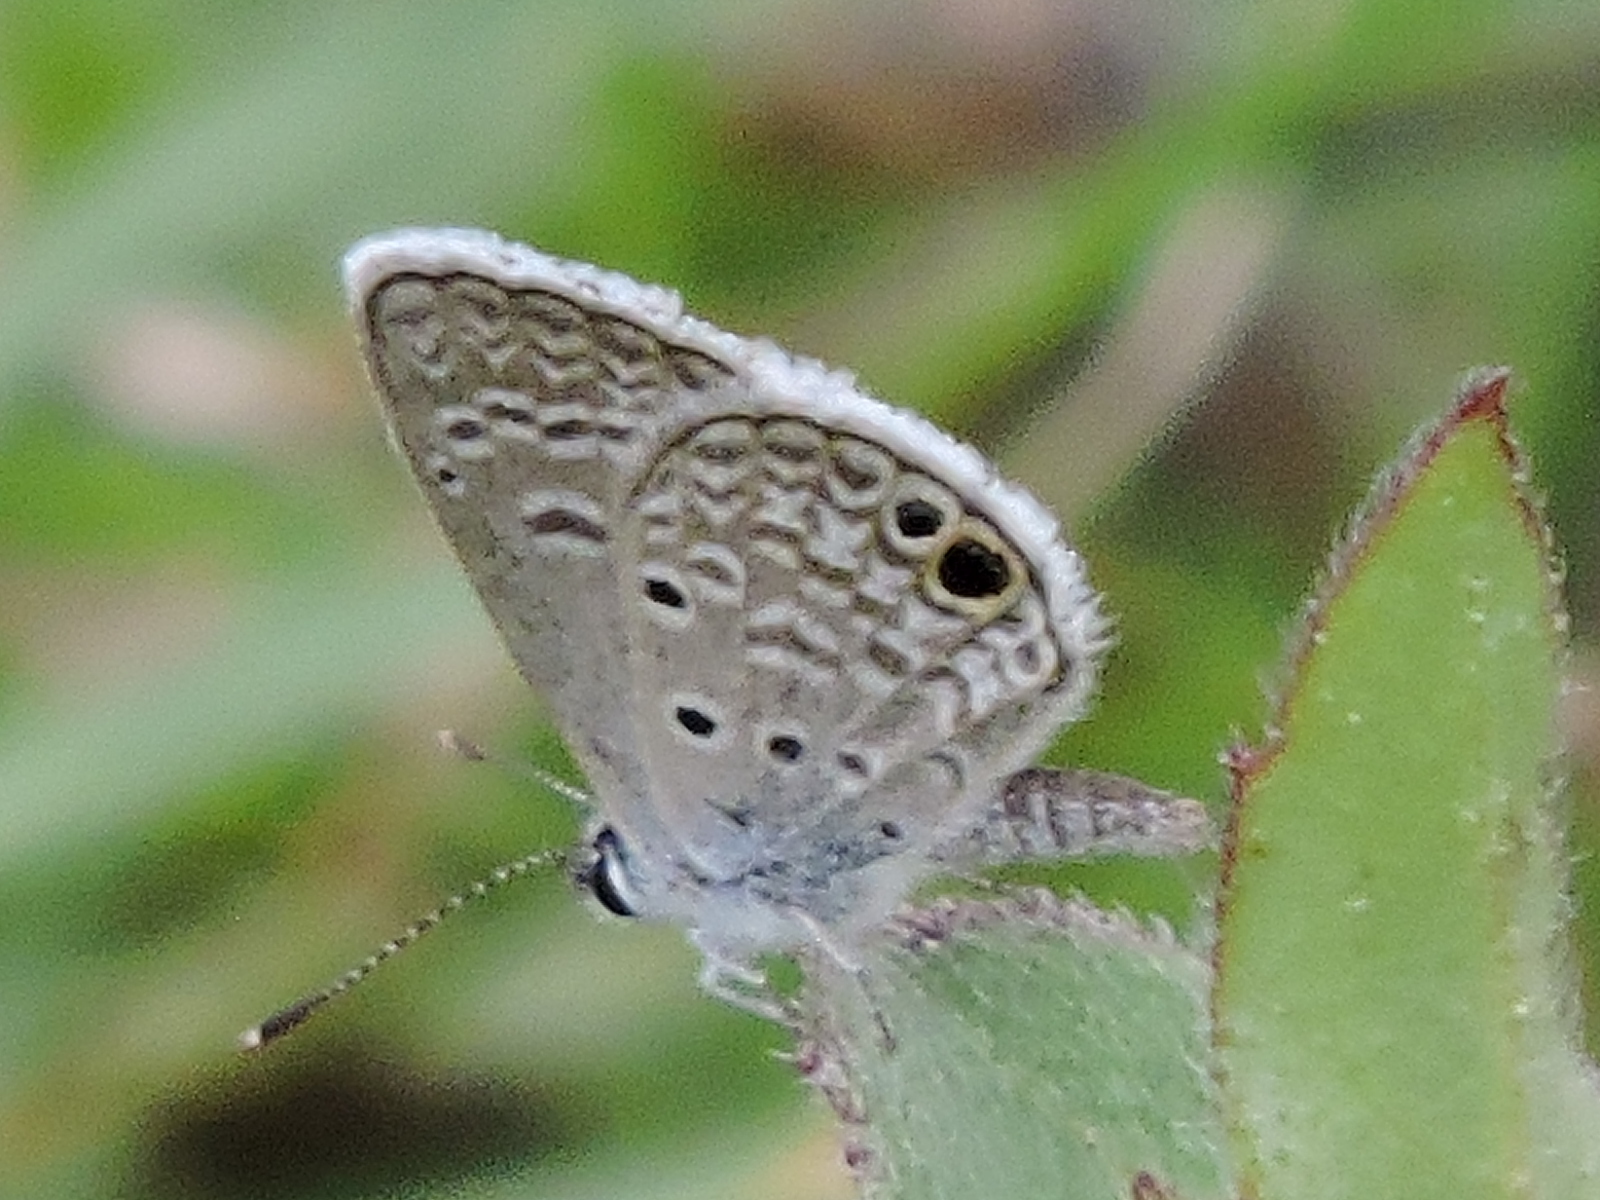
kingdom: Animalia
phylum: Arthropoda
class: Insecta
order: Lepidoptera
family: Lycaenidae
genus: Hemiargus
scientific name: Hemiargus ceraunus
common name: Ceraunus blue
